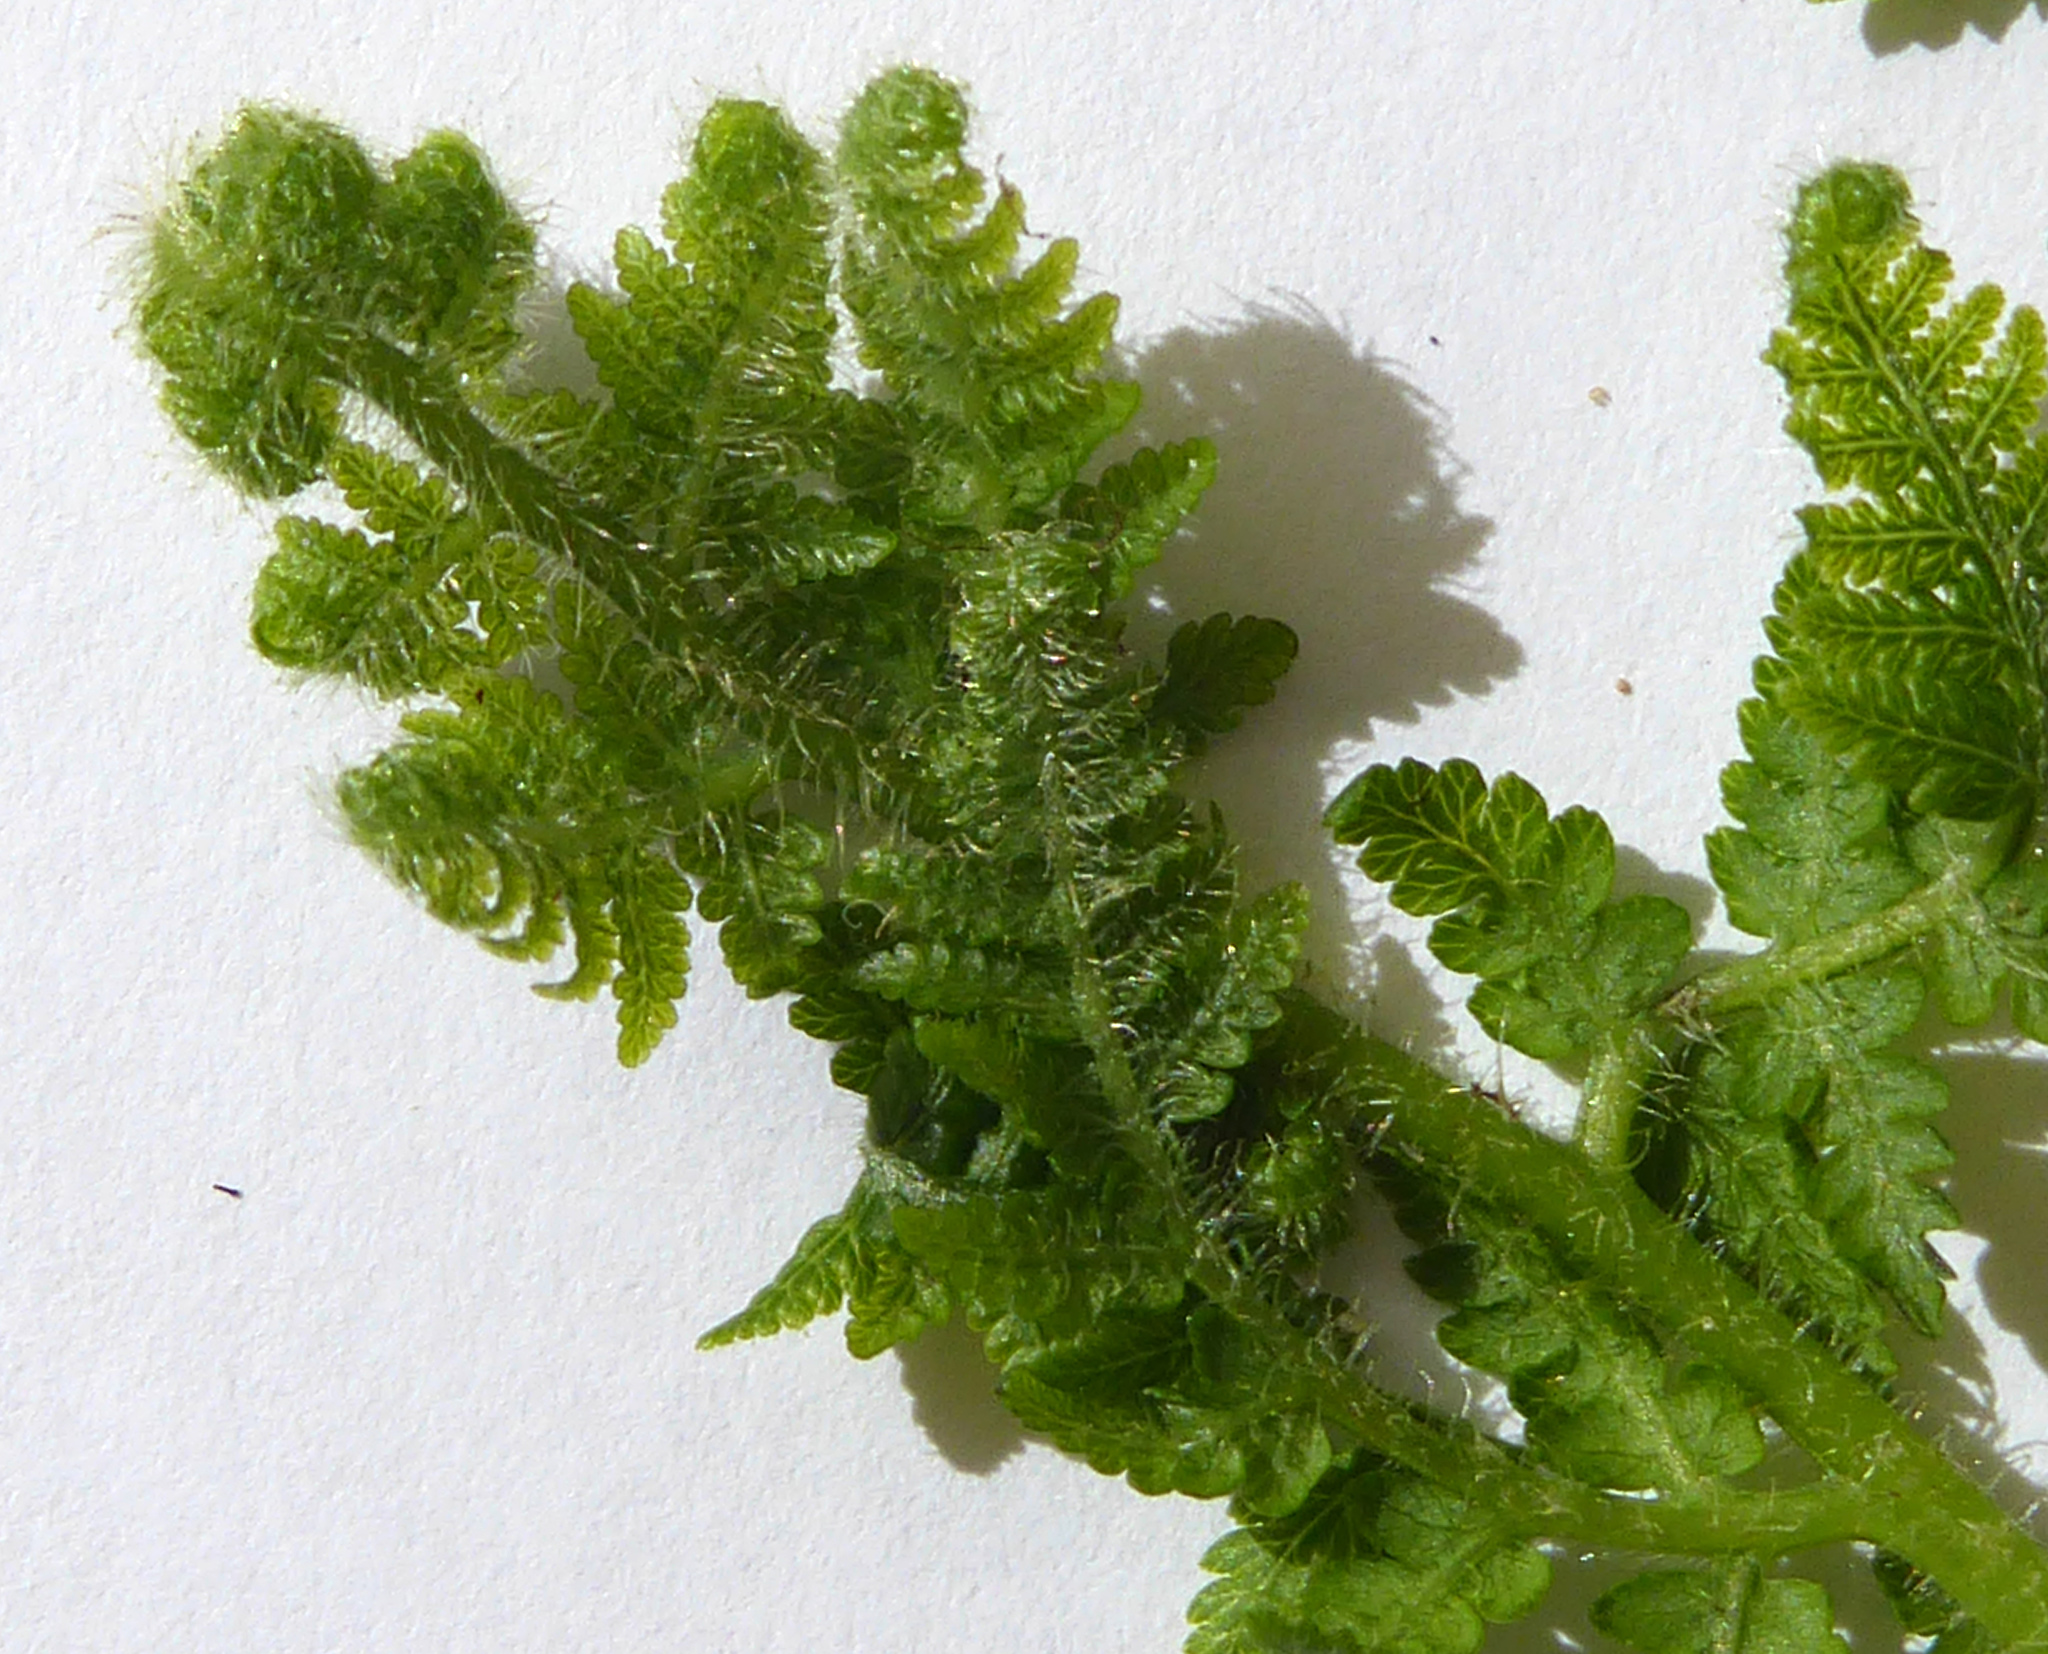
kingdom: Plantae
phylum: Tracheophyta
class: Polypodiopsida
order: Polypodiales
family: Dennstaedtiaceae
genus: Hypolepis
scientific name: Hypolepis dicksonioides
